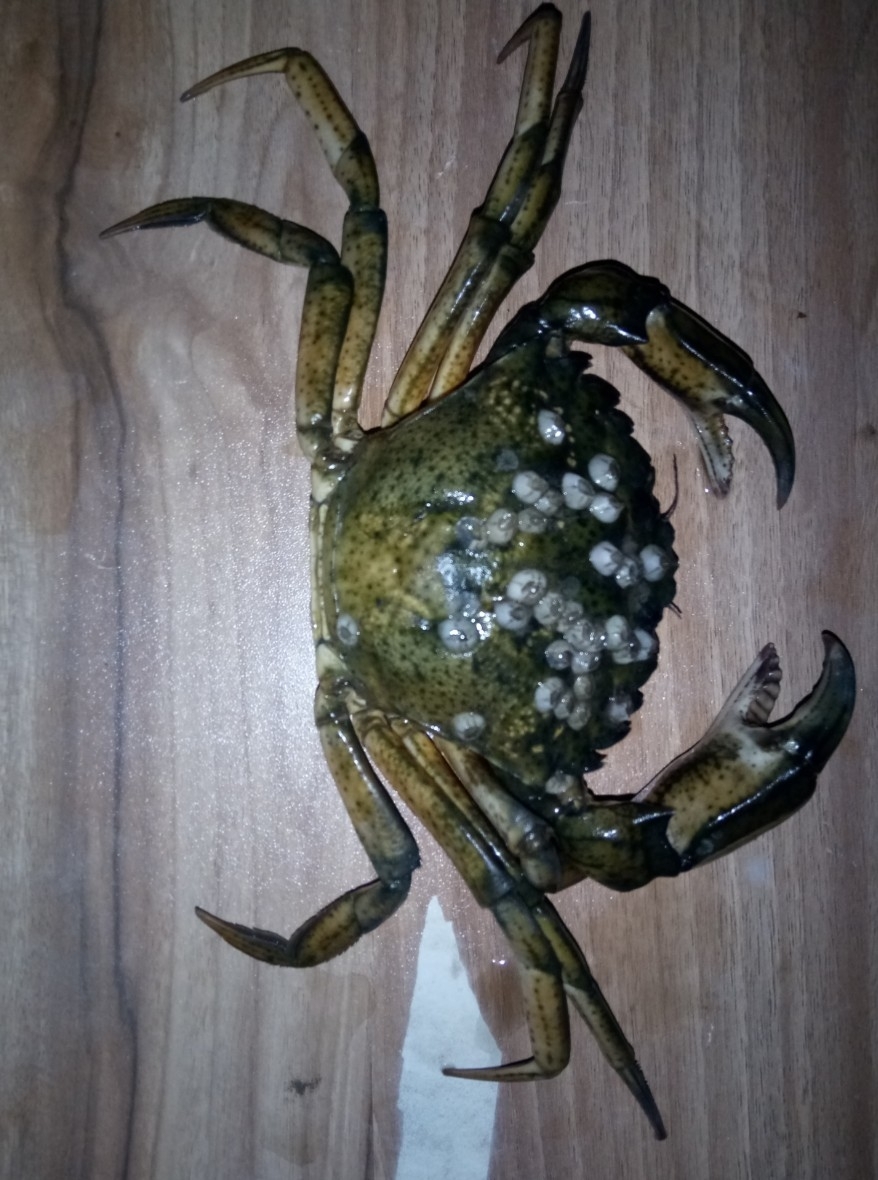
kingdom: Animalia
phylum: Arthropoda
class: Malacostraca
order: Decapoda
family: Carcinidae
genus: Carcinus
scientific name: Carcinus aestuarii
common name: Mediterranean green crab
